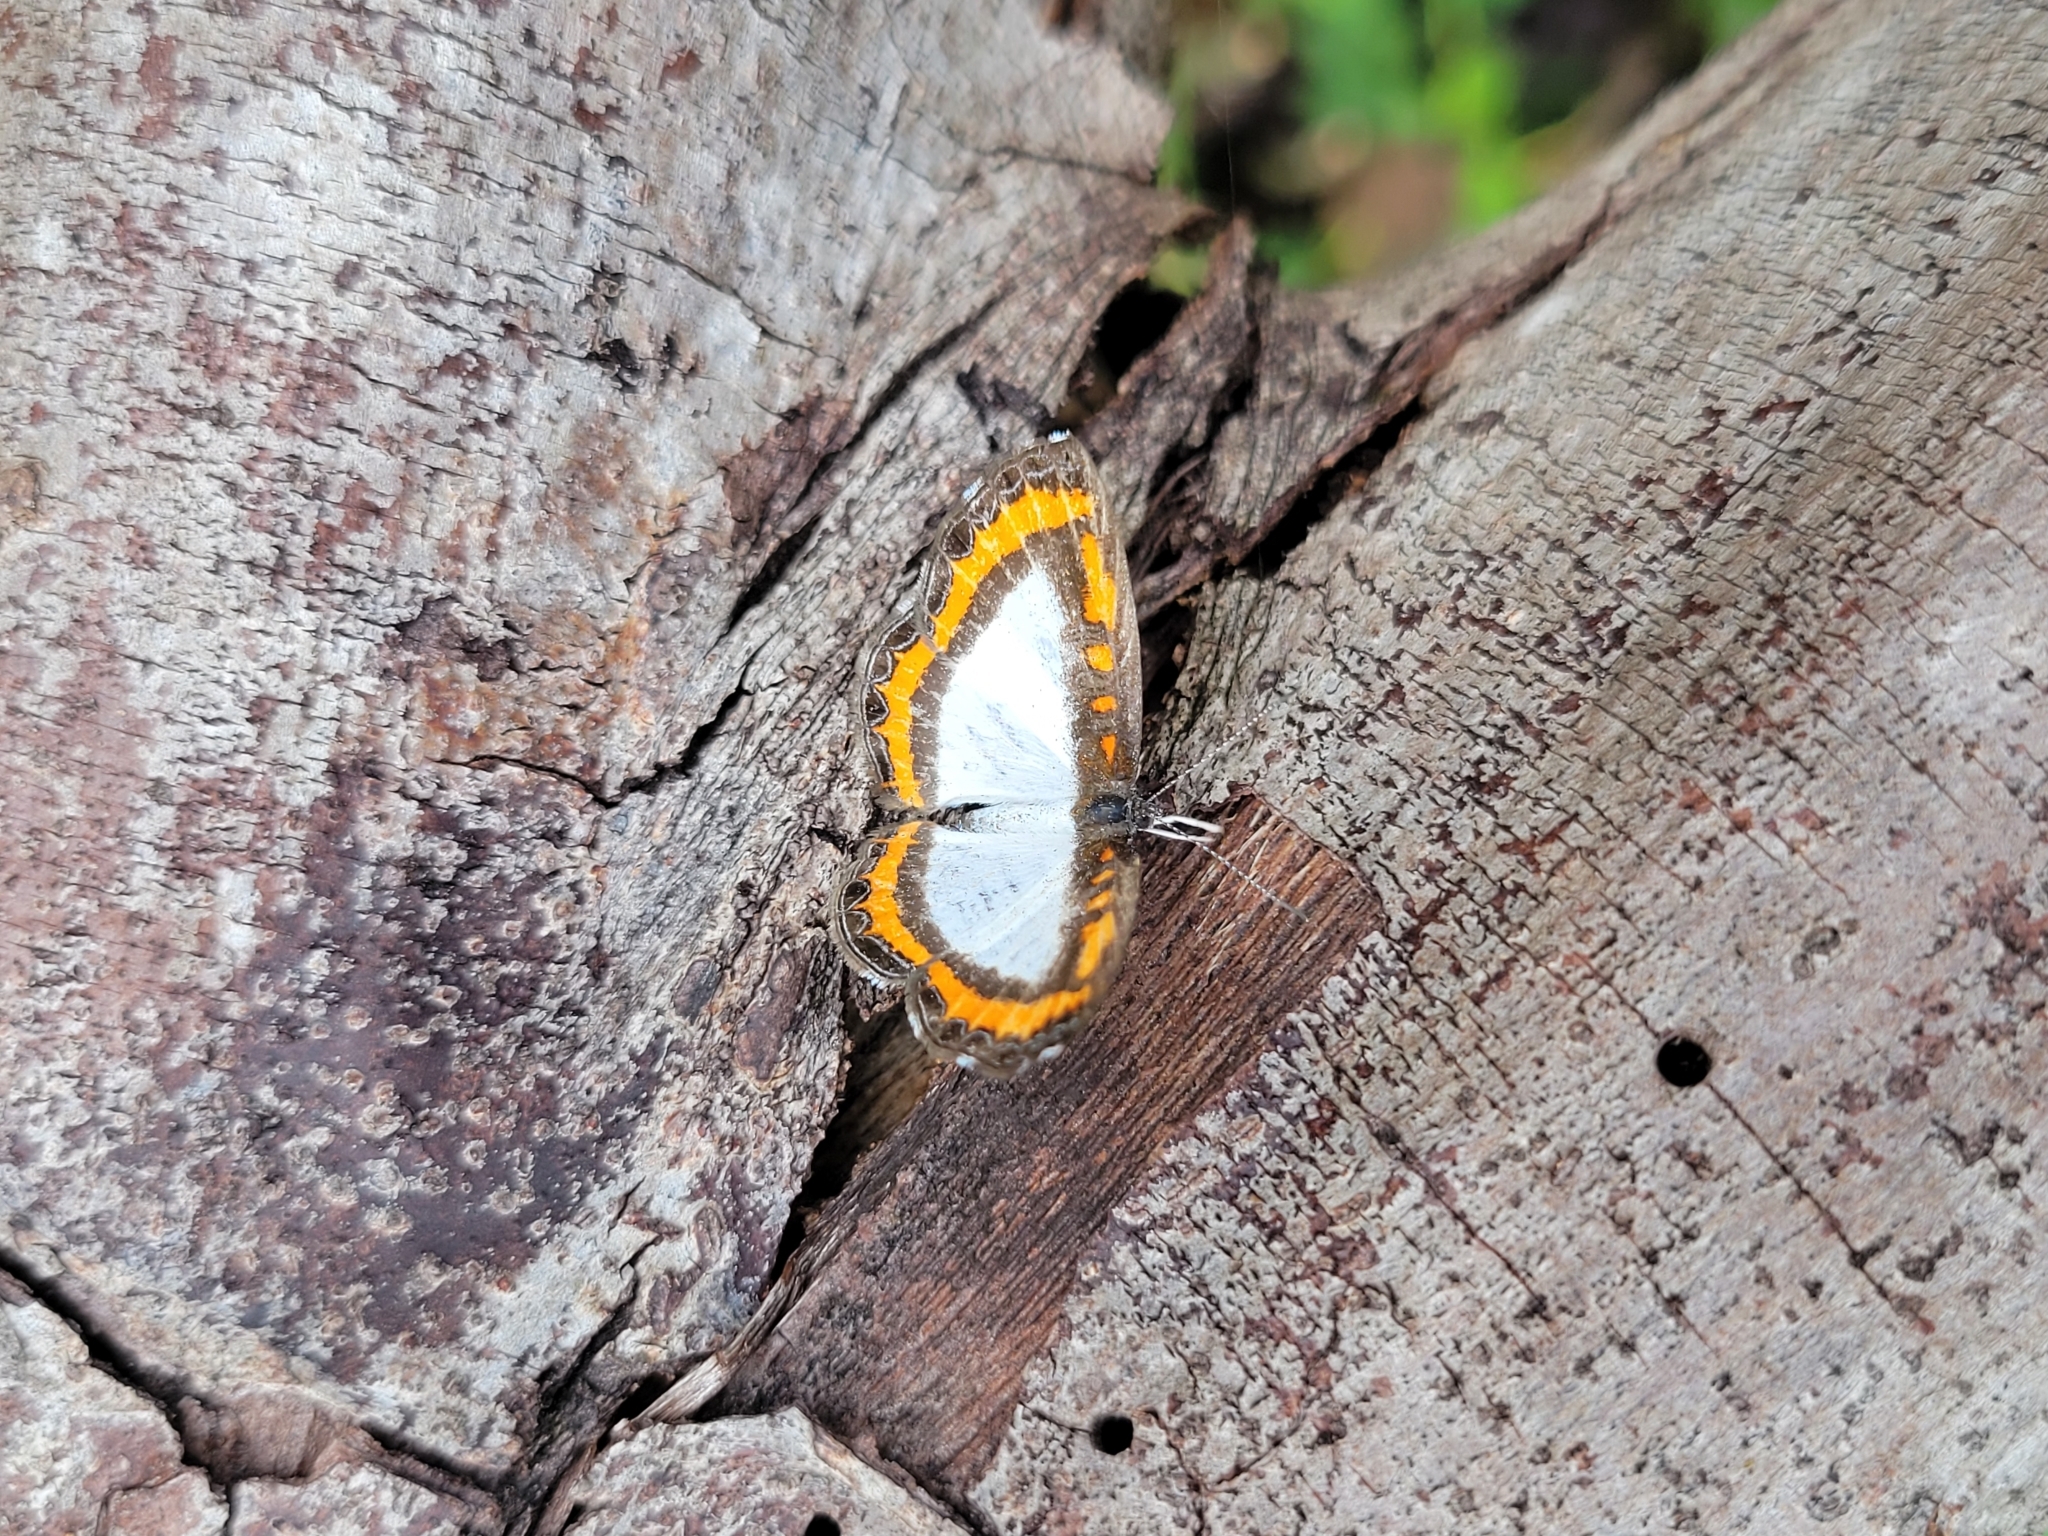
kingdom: Animalia
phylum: Arthropoda
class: Insecta
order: Lepidoptera
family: Riodinidae
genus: Nymula
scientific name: Nymula calyce
